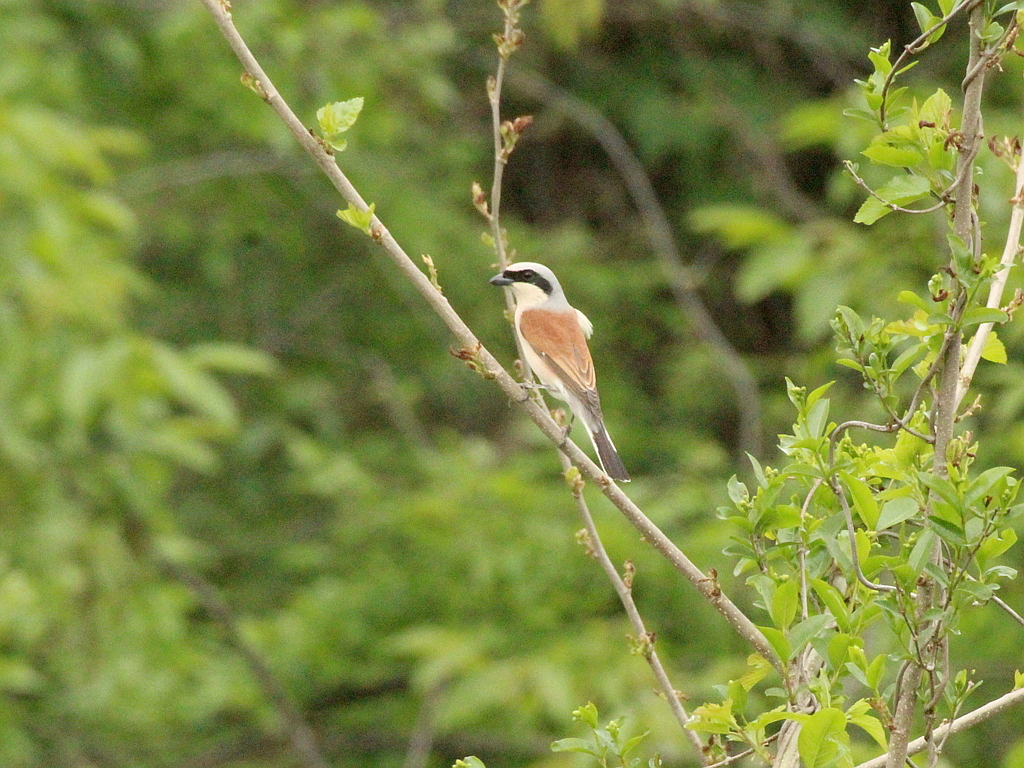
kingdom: Animalia
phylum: Chordata
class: Aves
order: Passeriformes
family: Laniidae
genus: Lanius
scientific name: Lanius collurio
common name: Red-backed shrike
